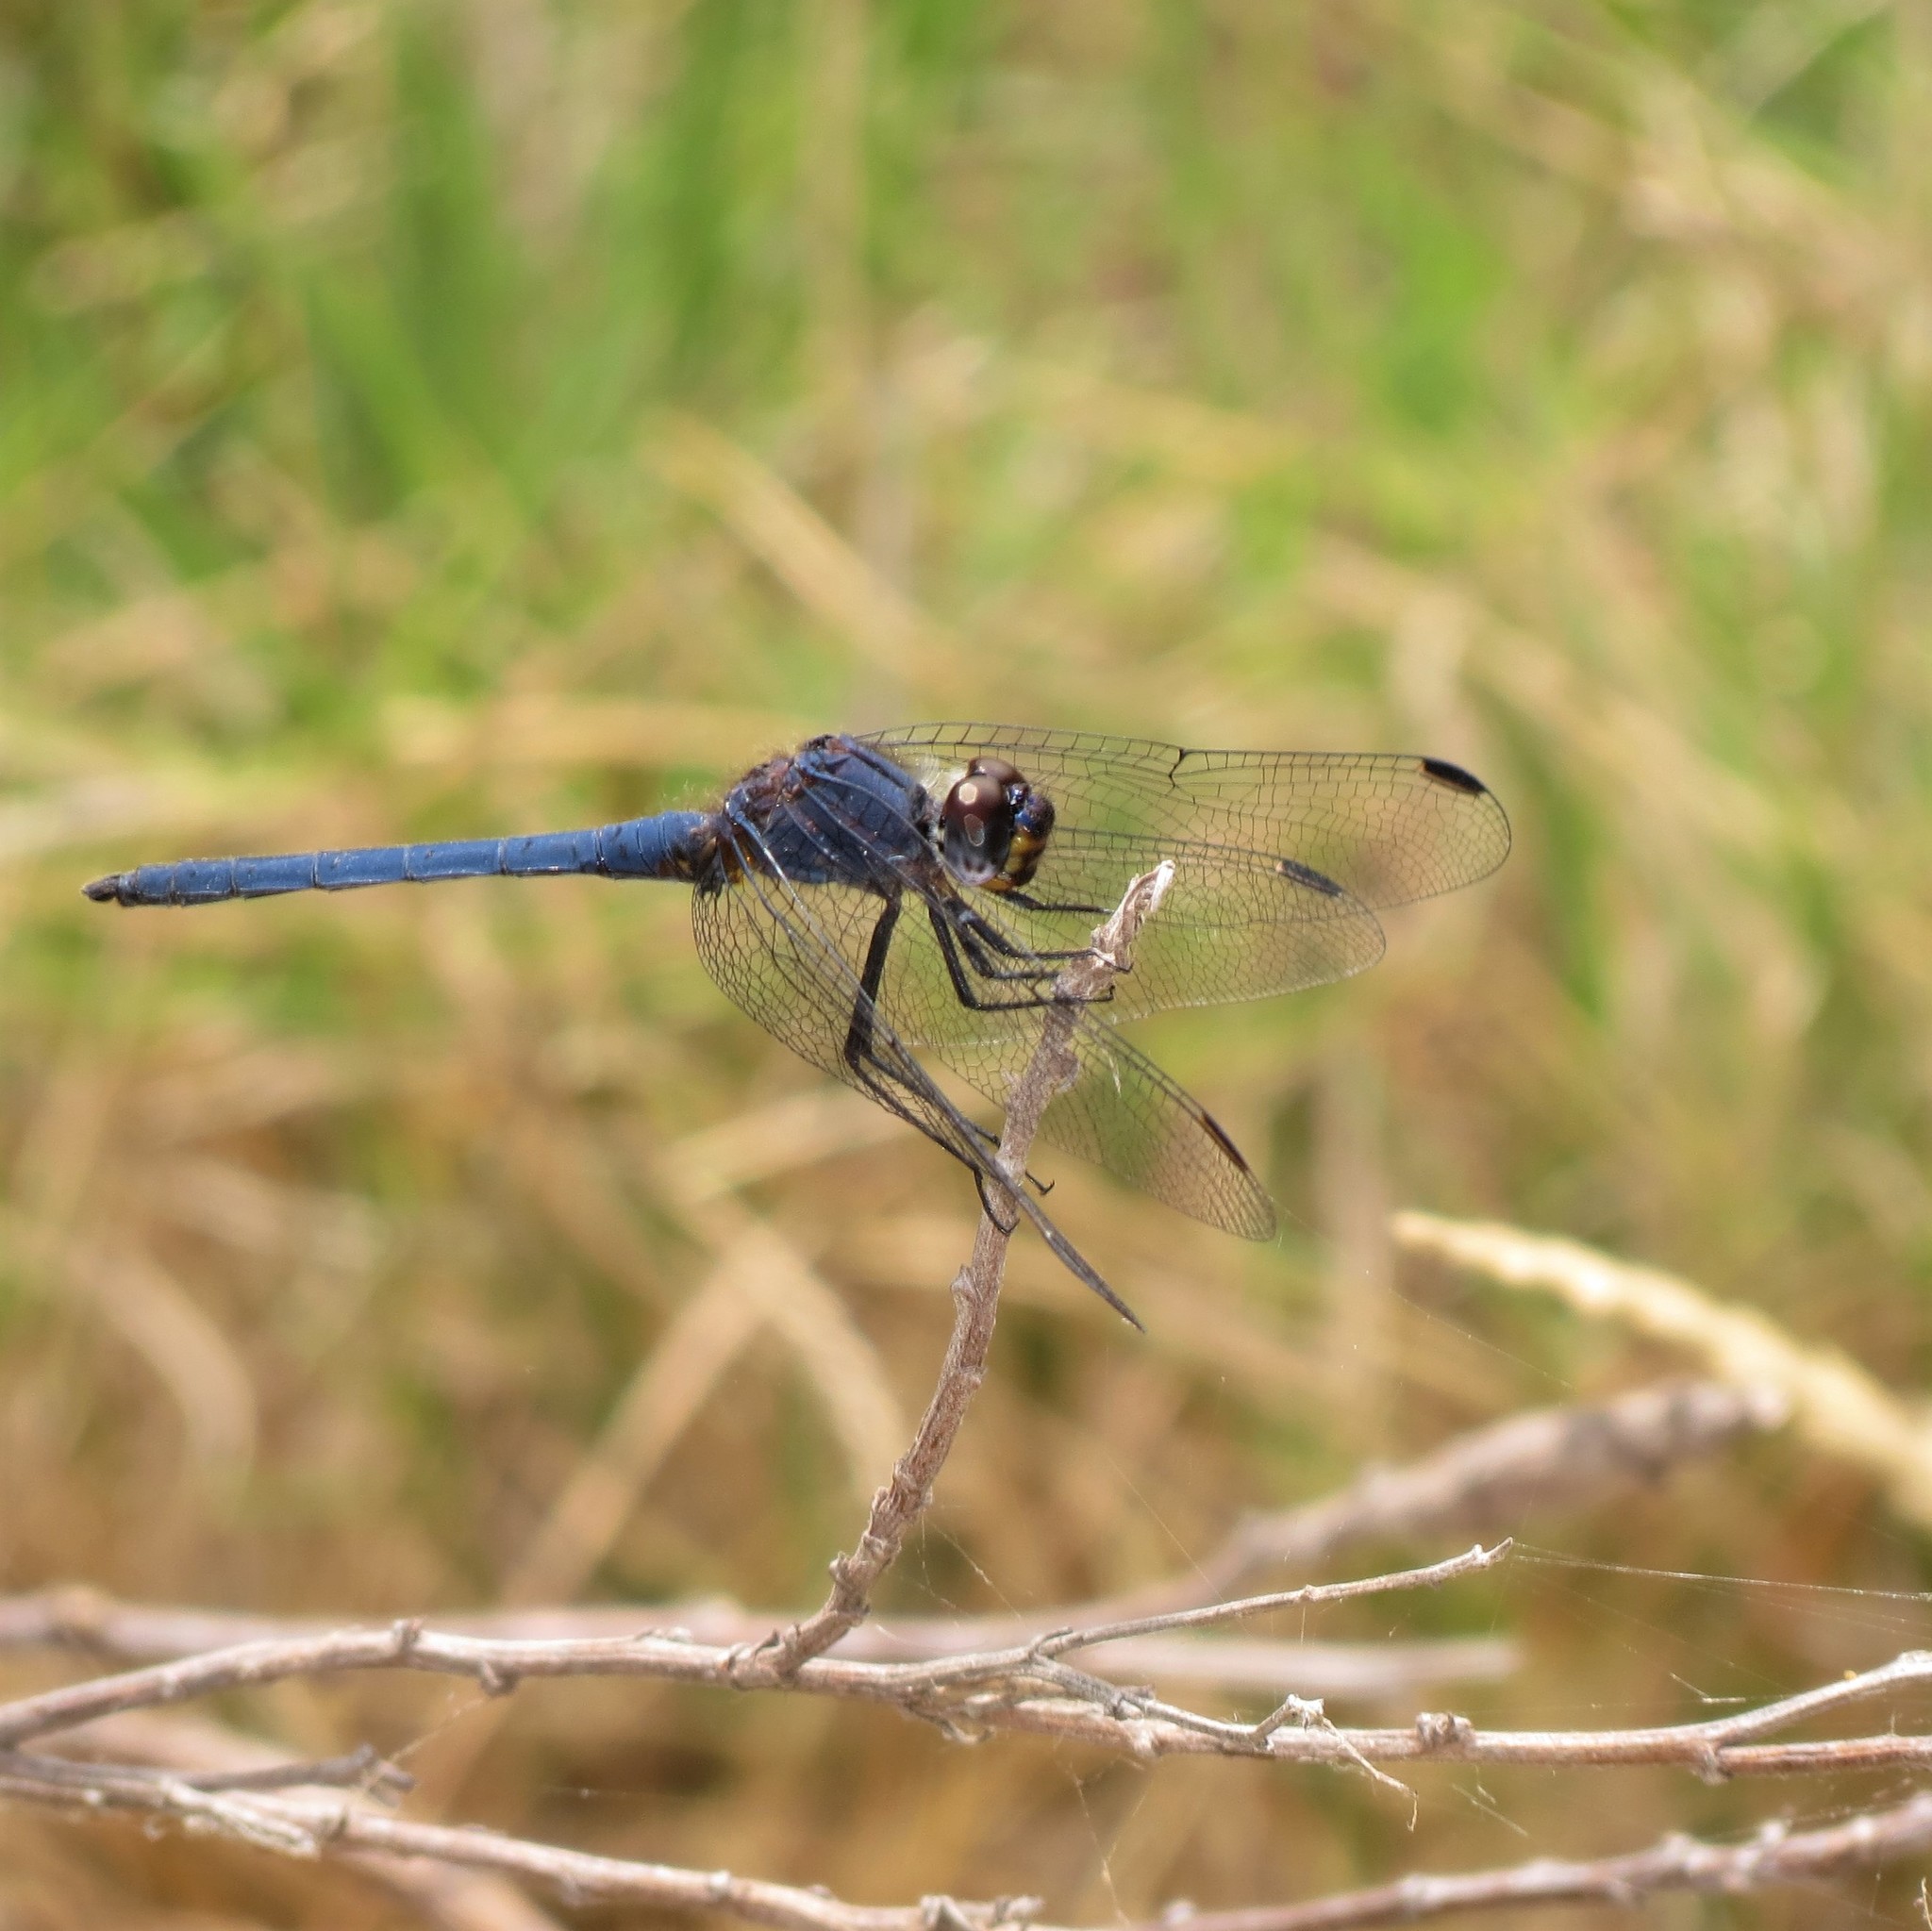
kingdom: Animalia
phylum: Arthropoda
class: Insecta
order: Odonata
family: Libellulidae
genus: Trithemis
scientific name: Trithemis furva
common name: Dark dropwing
